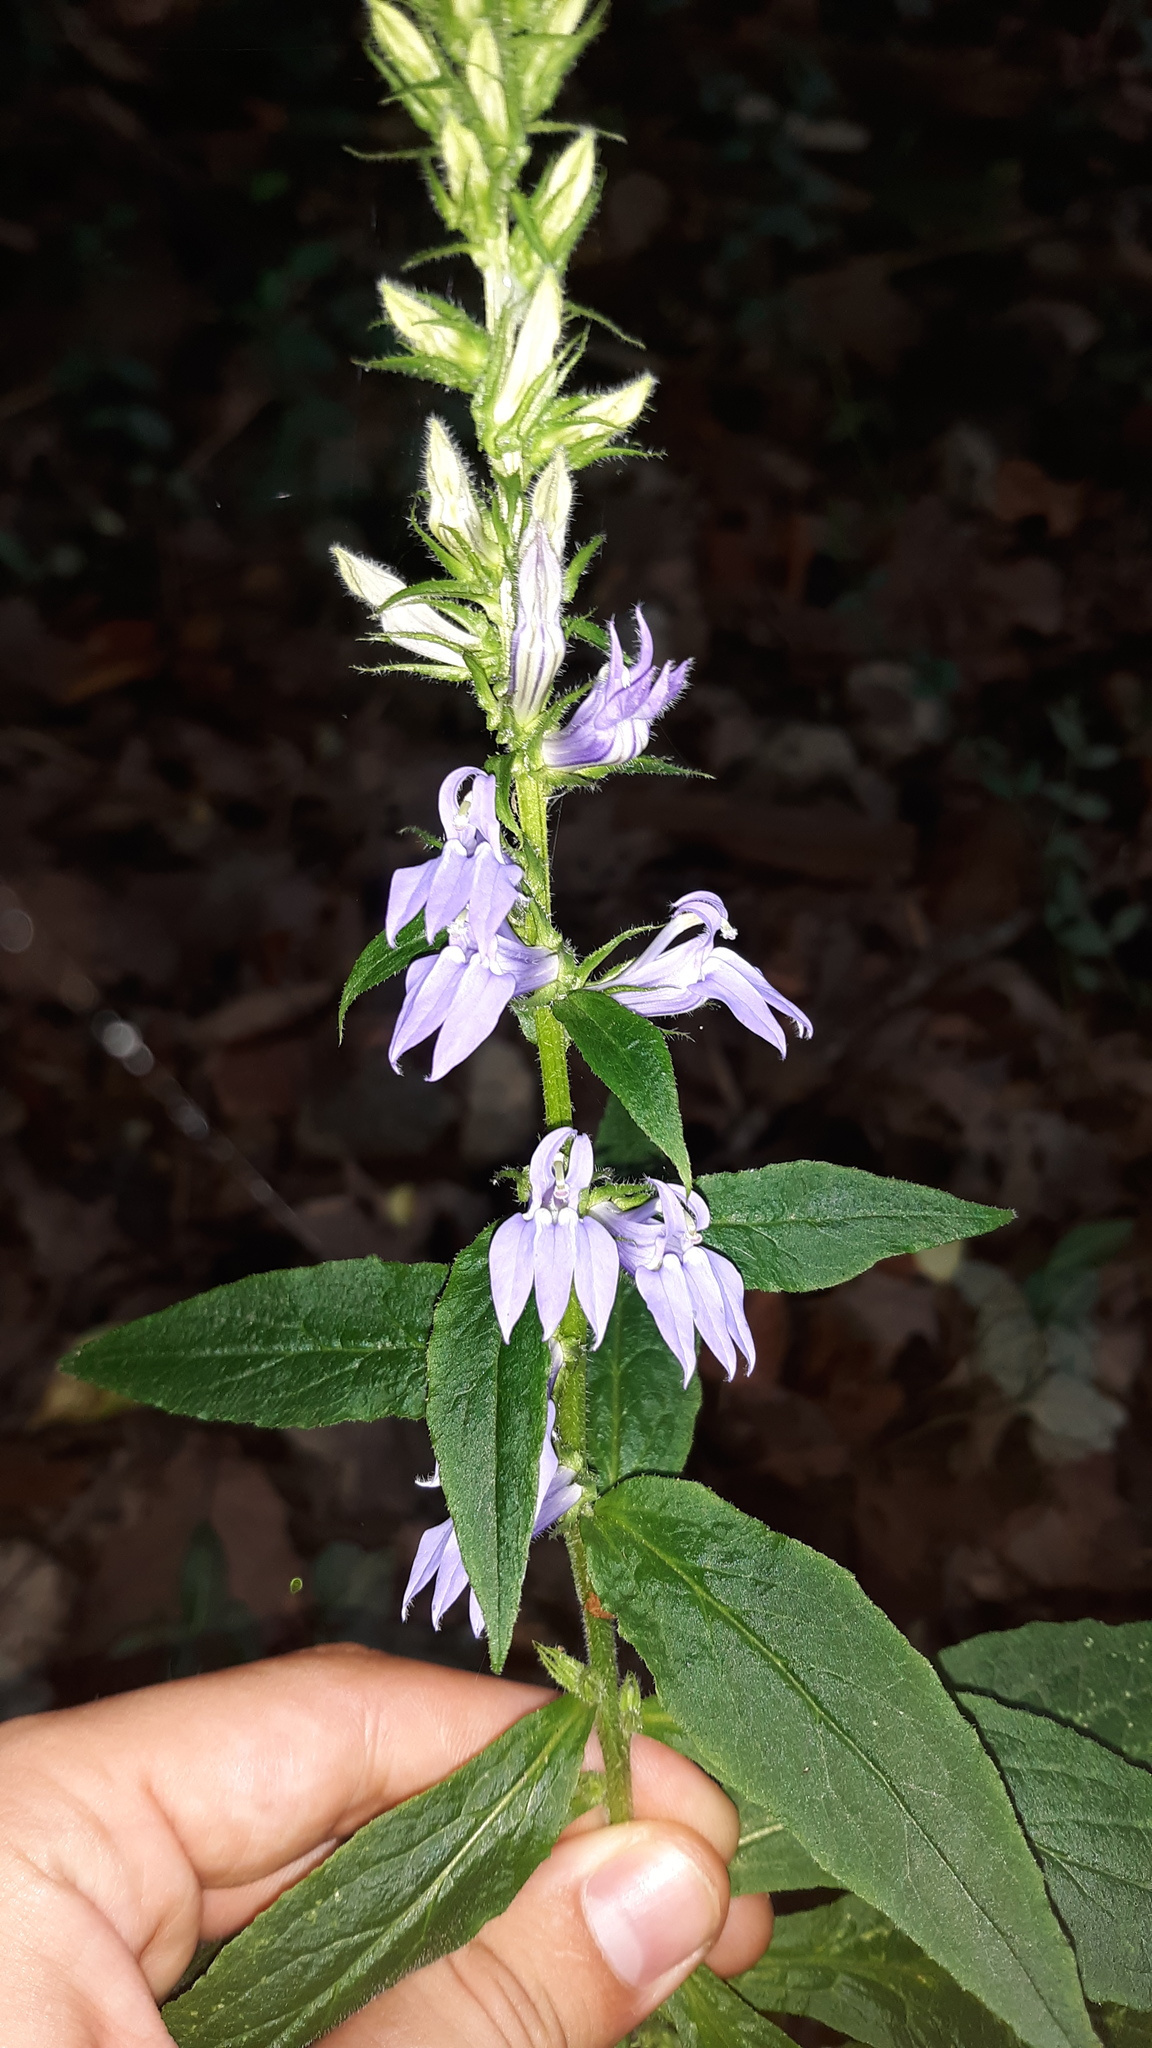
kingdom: Plantae
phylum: Tracheophyta
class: Magnoliopsida
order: Asterales
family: Campanulaceae
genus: Lobelia
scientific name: Lobelia siphilitica
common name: Great lobelia
